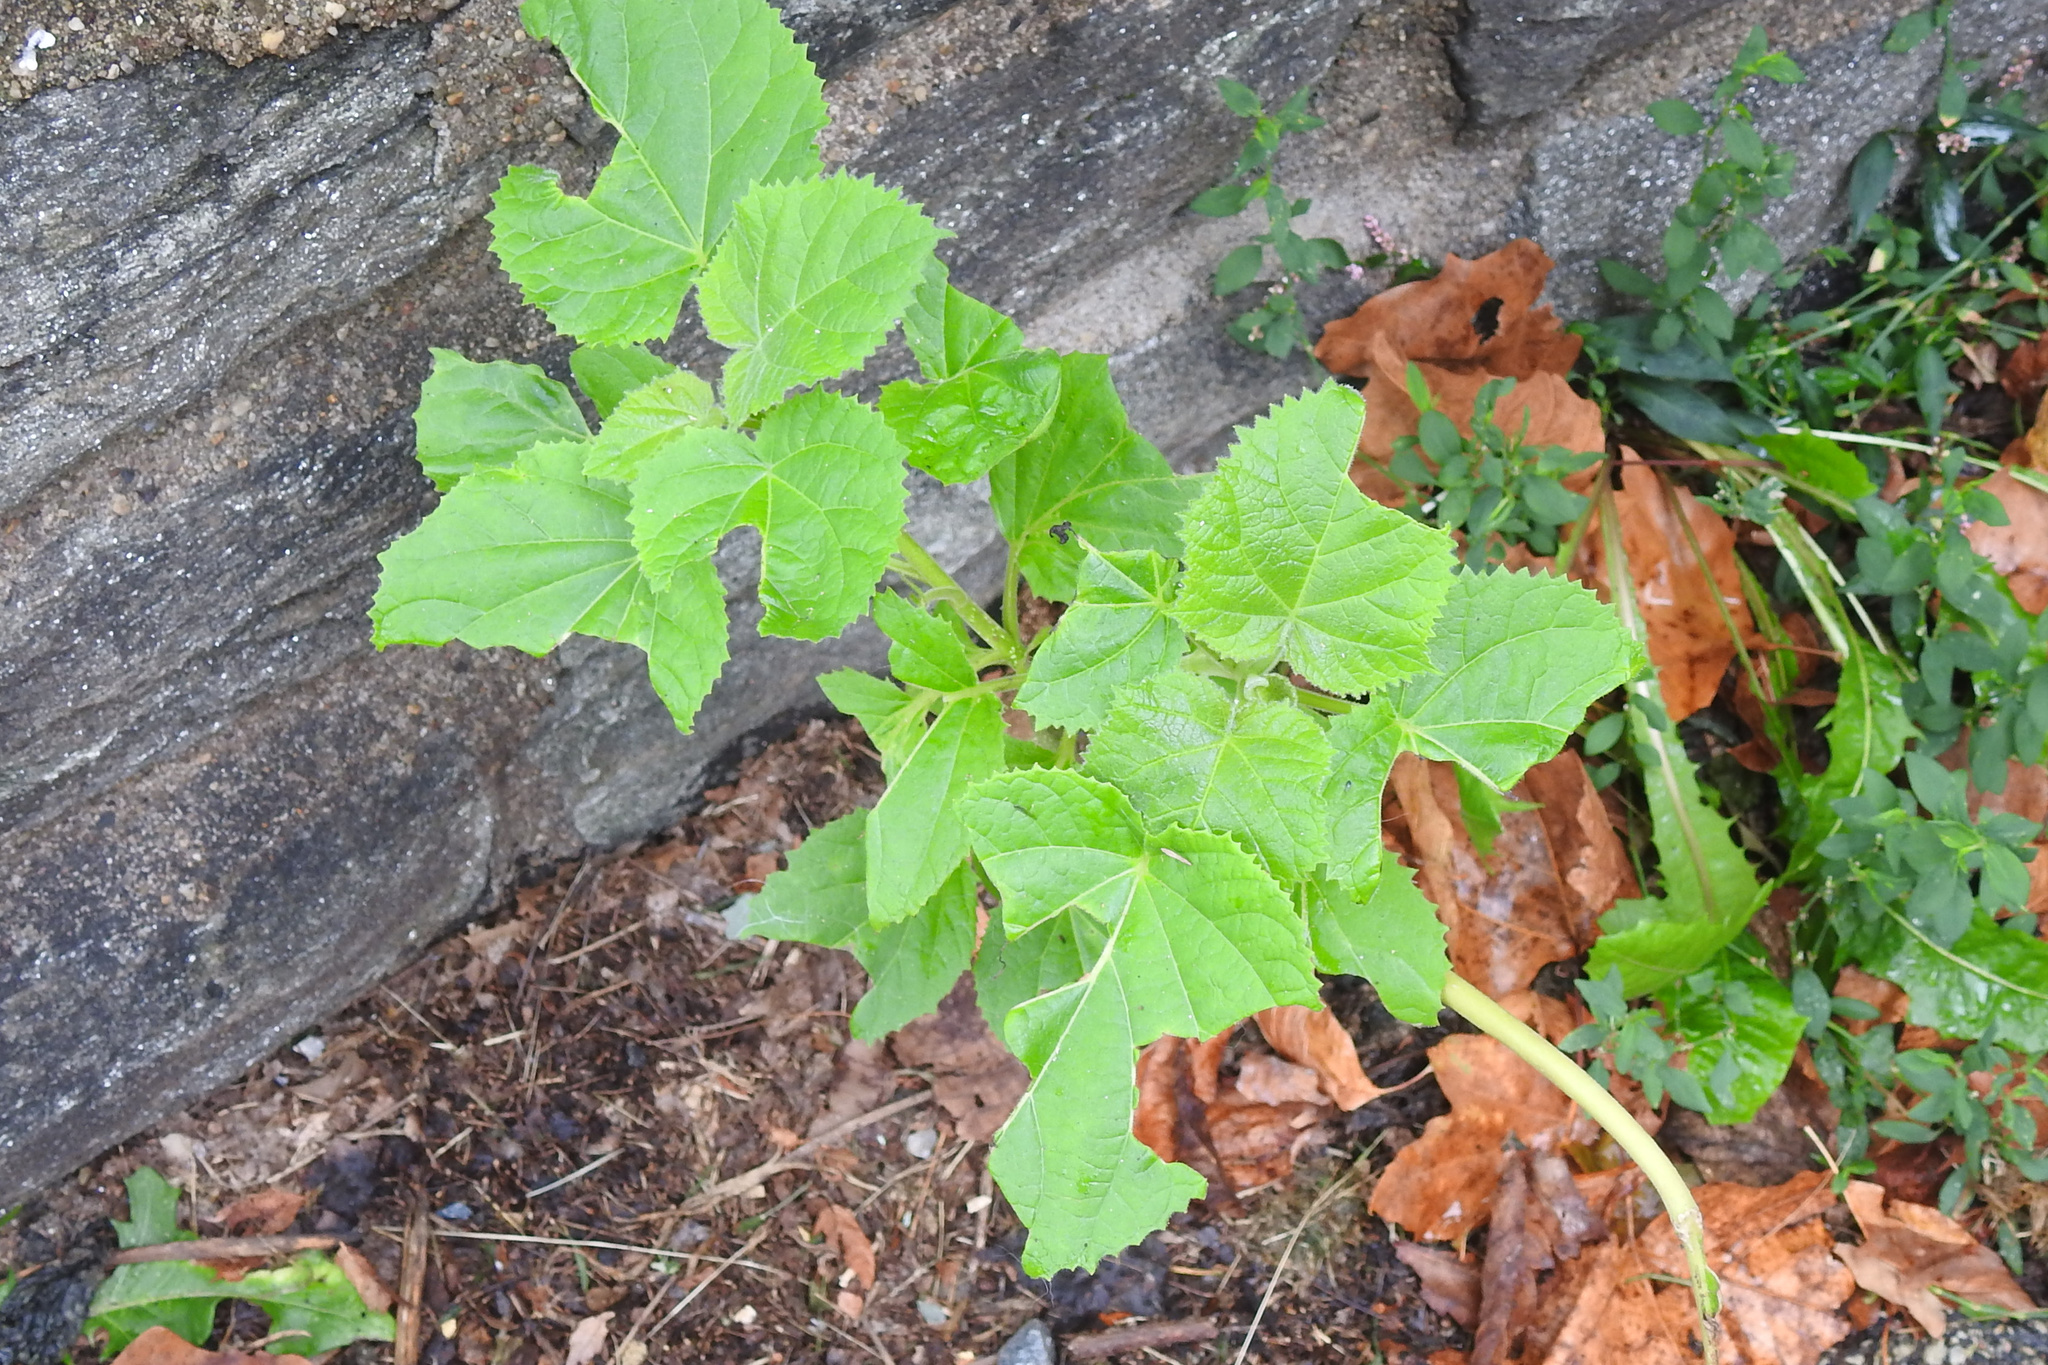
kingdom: Plantae
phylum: Tracheophyta
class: Magnoliopsida
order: Lamiales
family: Paulowniaceae
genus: Paulownia
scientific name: Paulownia tomentosa
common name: Foxglove-tree
